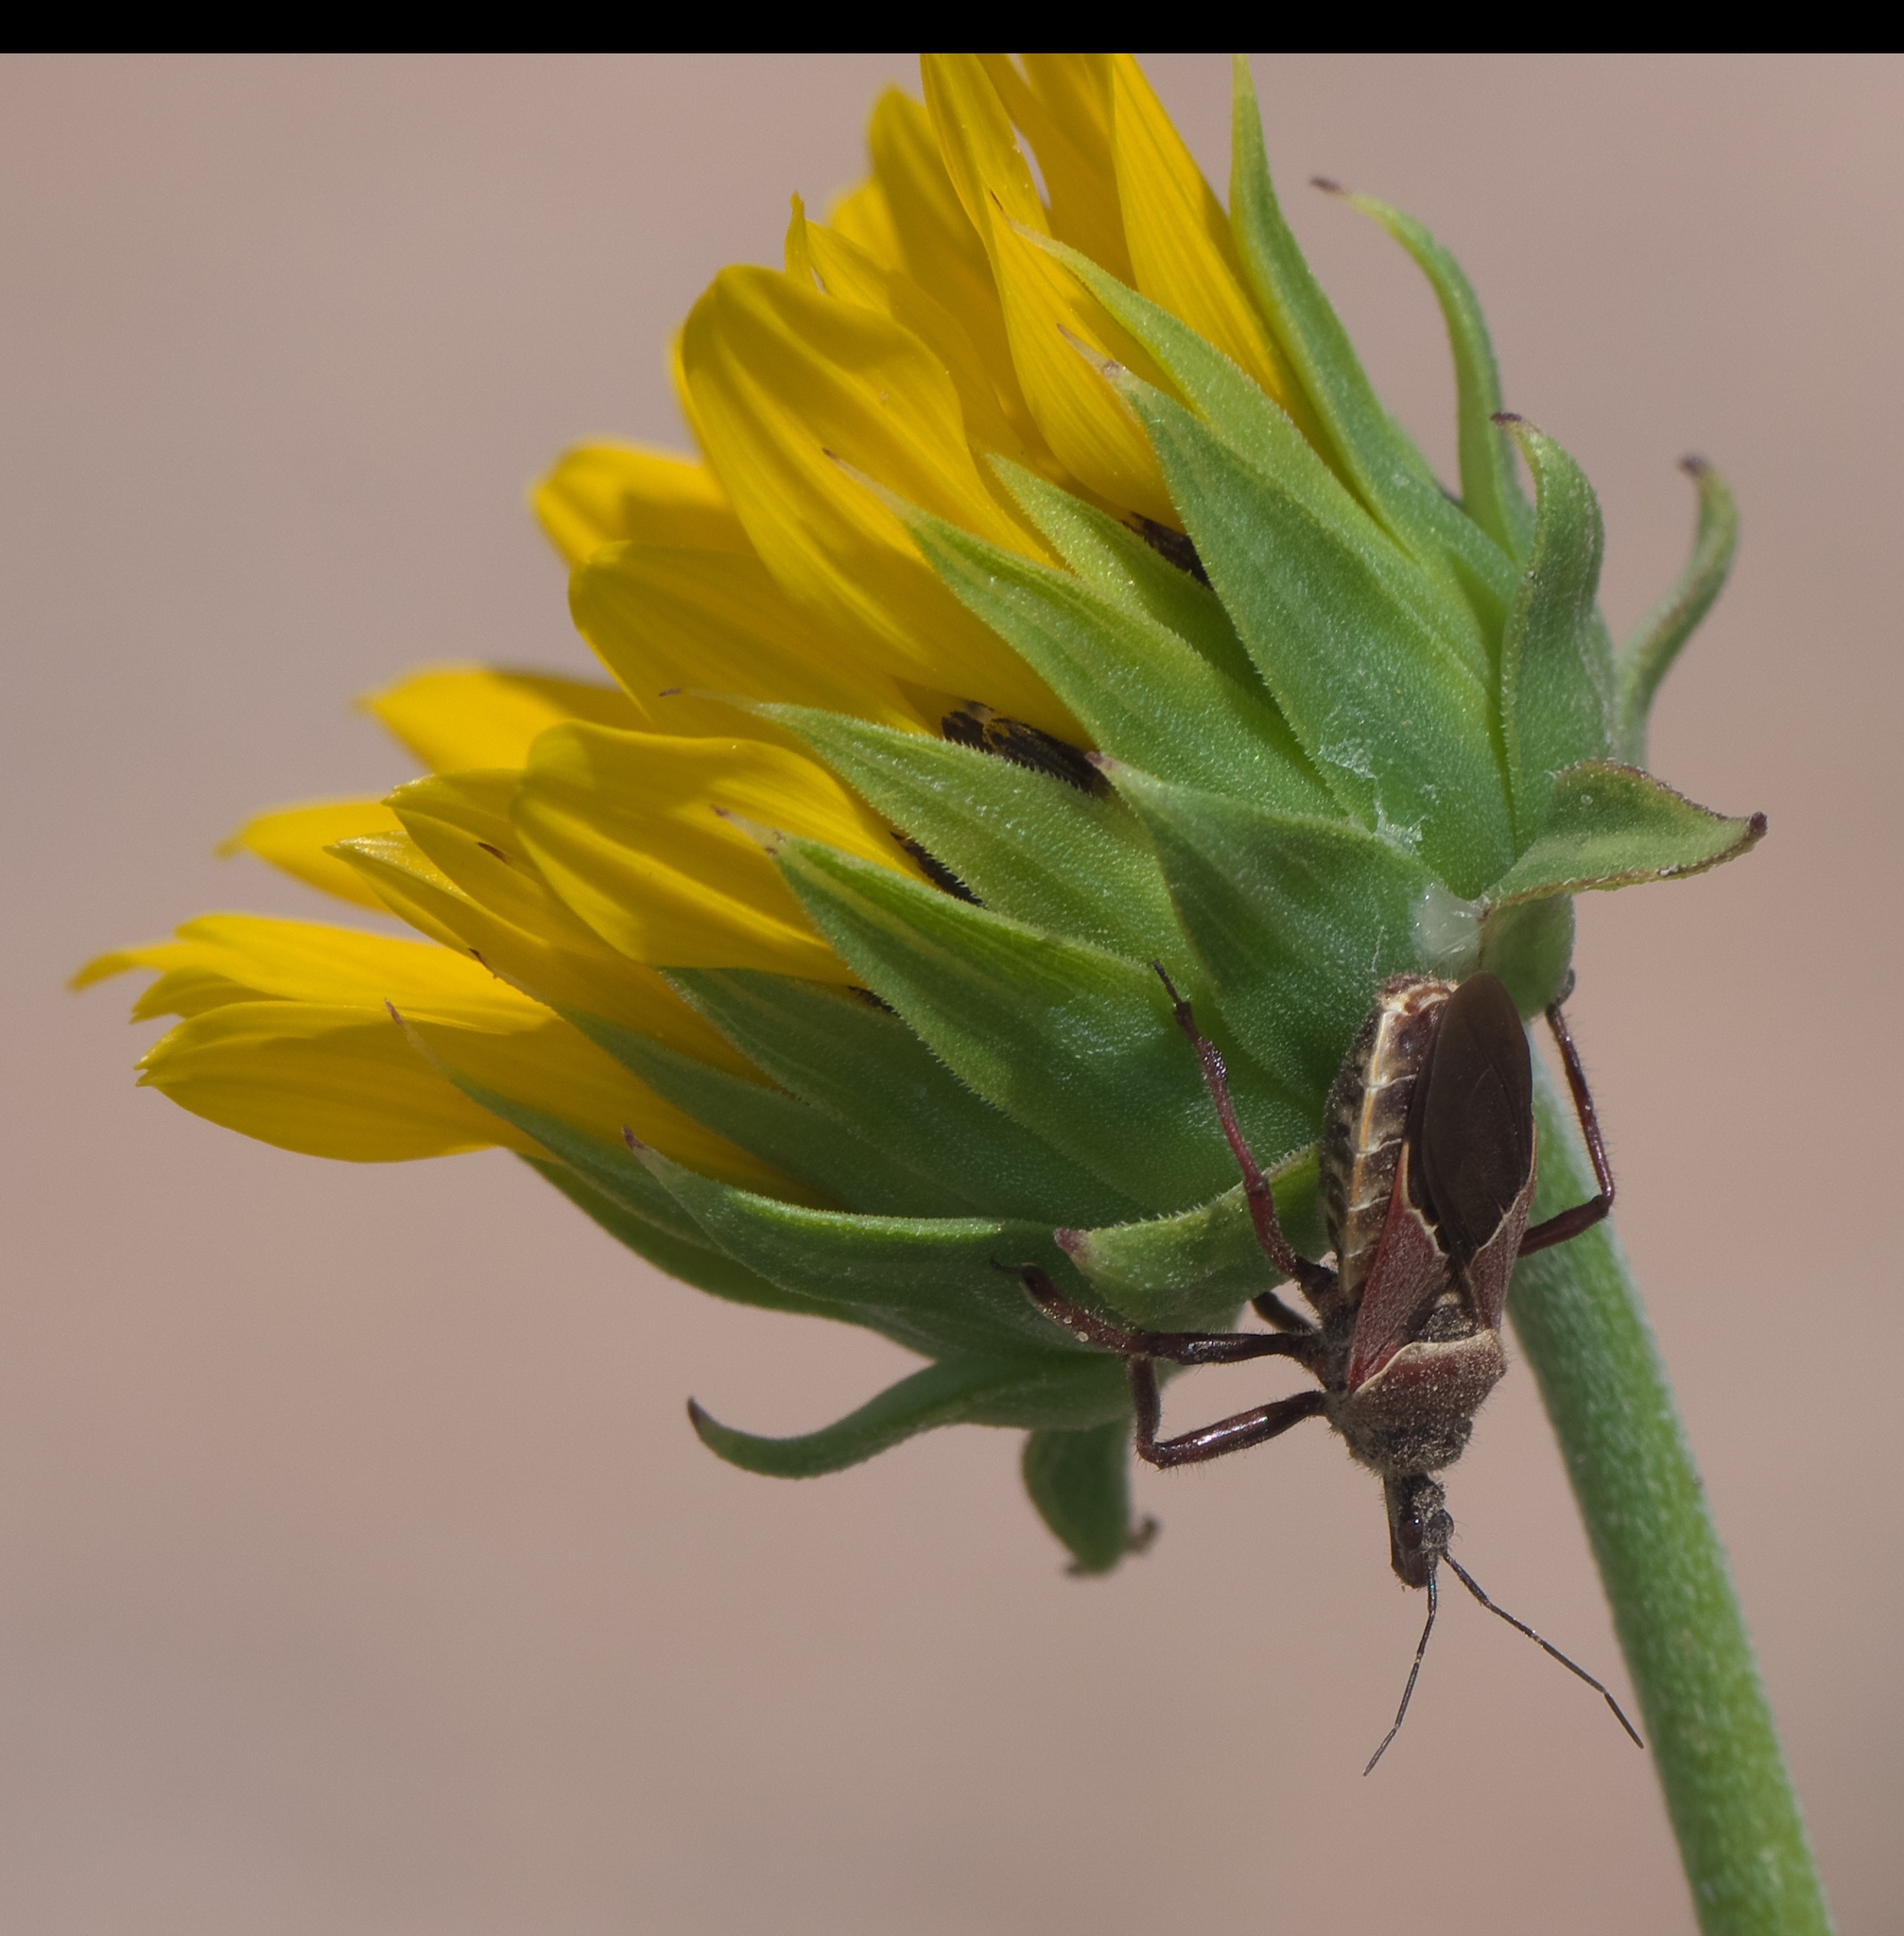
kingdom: Animalia
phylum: Arthropoda
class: Insecta
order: Hemiptera
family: Reduviidae
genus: Apiomerus
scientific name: Apiomerus spissipes
